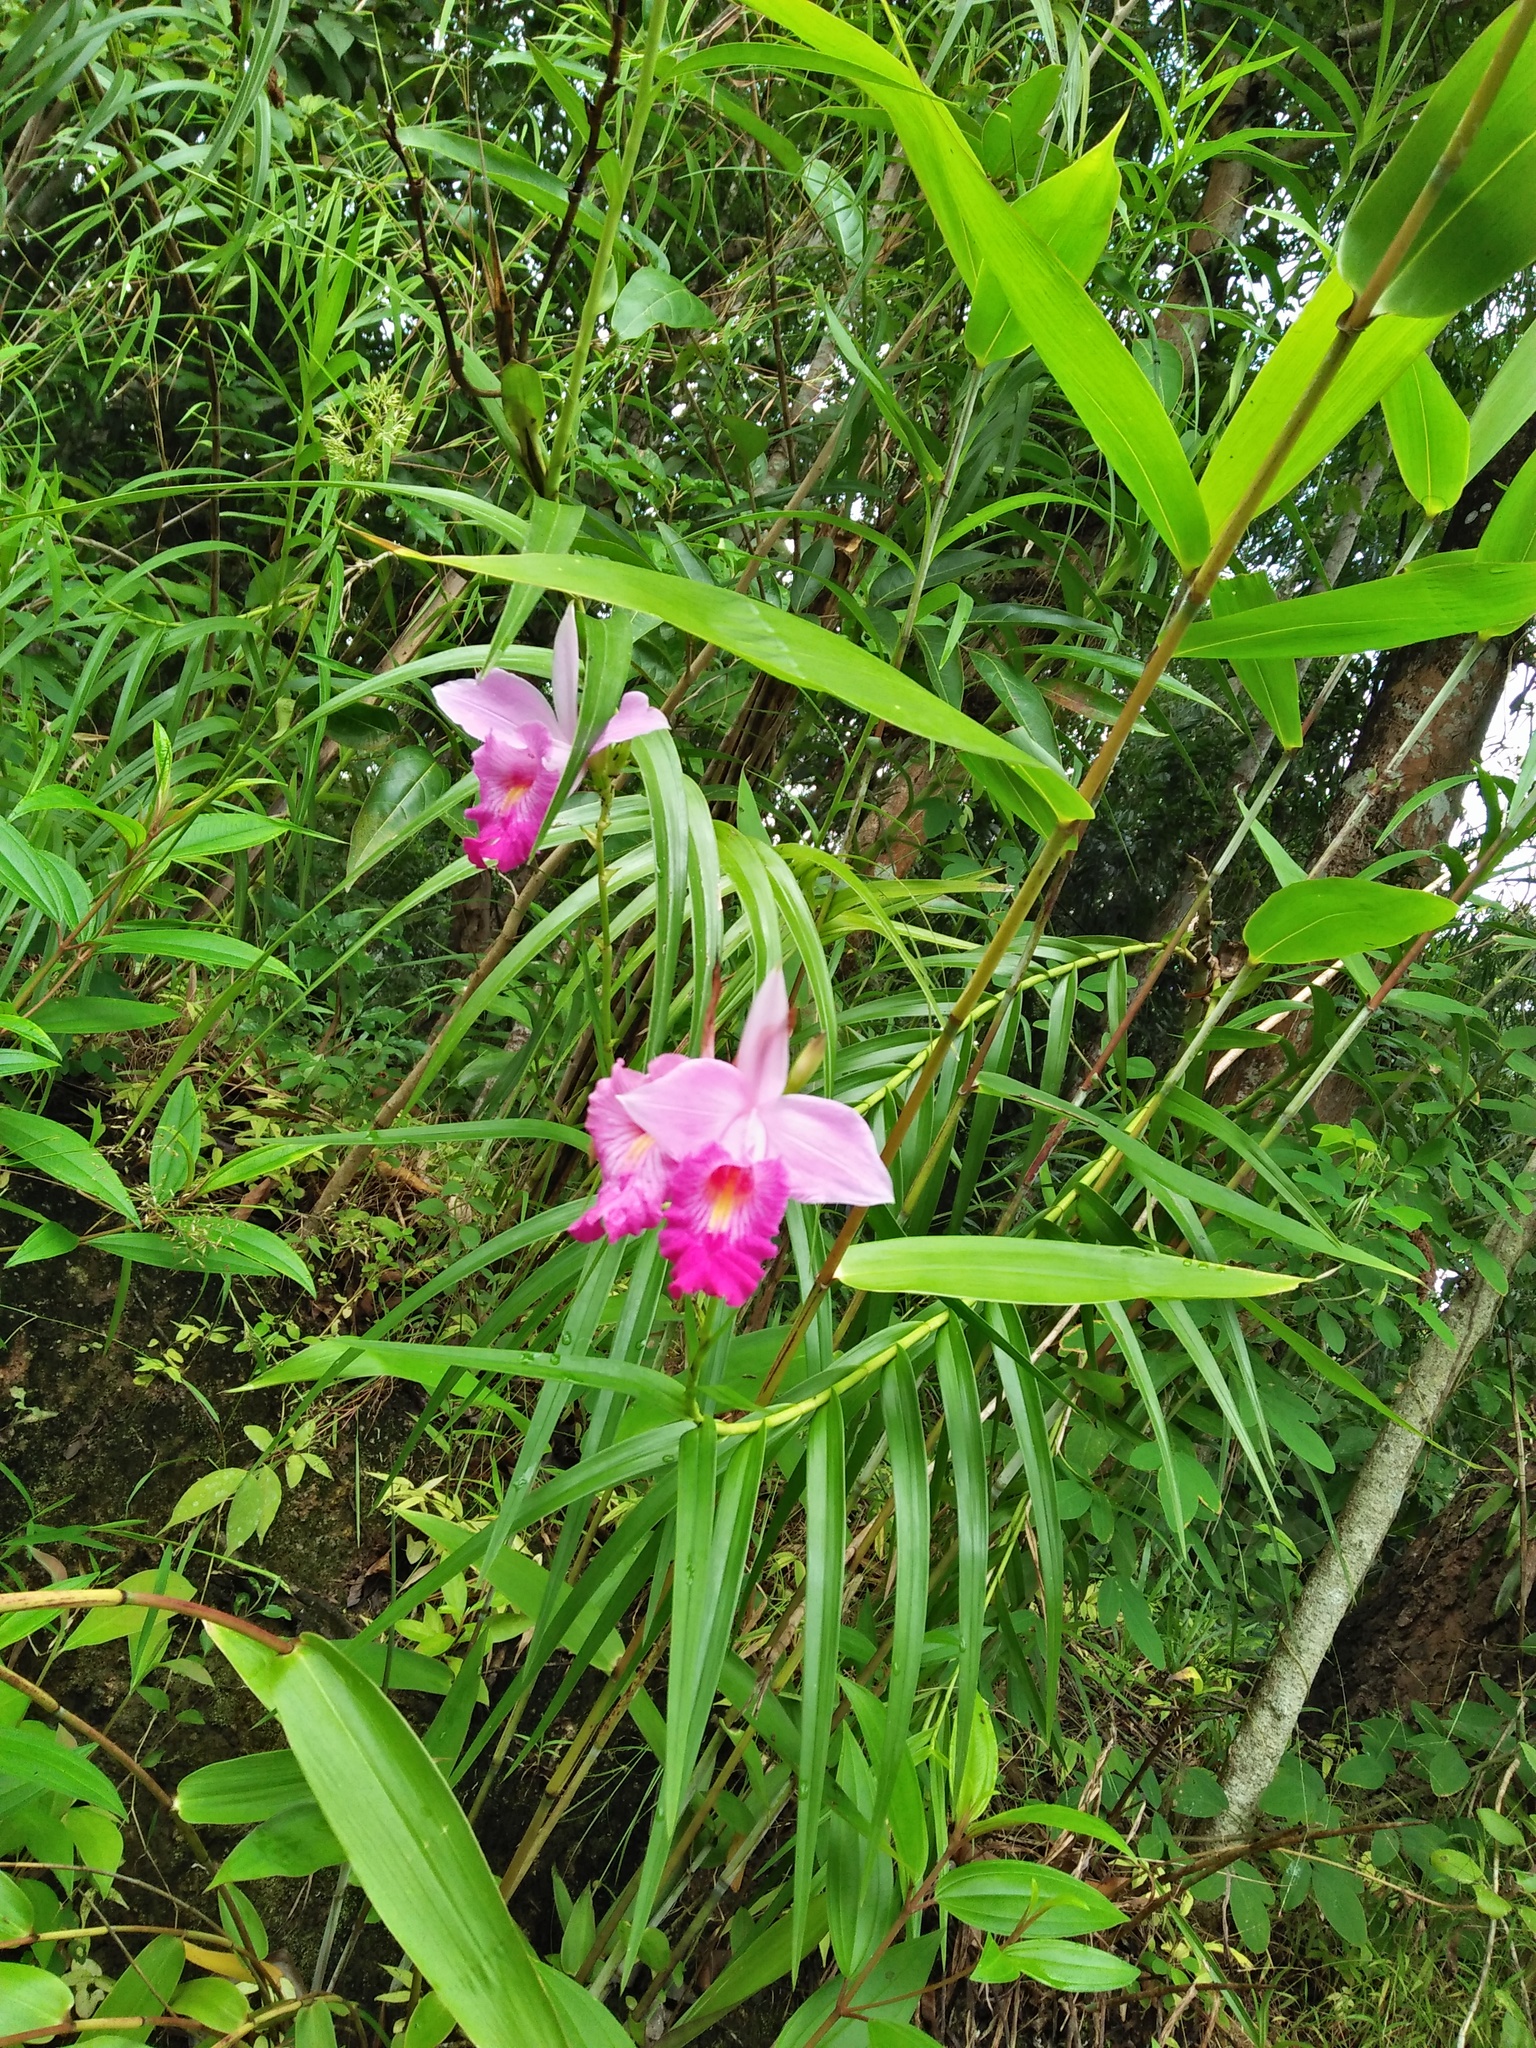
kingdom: Plantae
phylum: Tracheophyta
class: Liliopsida
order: Asparagales
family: Orchidaceae
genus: Arundina
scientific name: Arundina graminifolia
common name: Bamboo orchid
